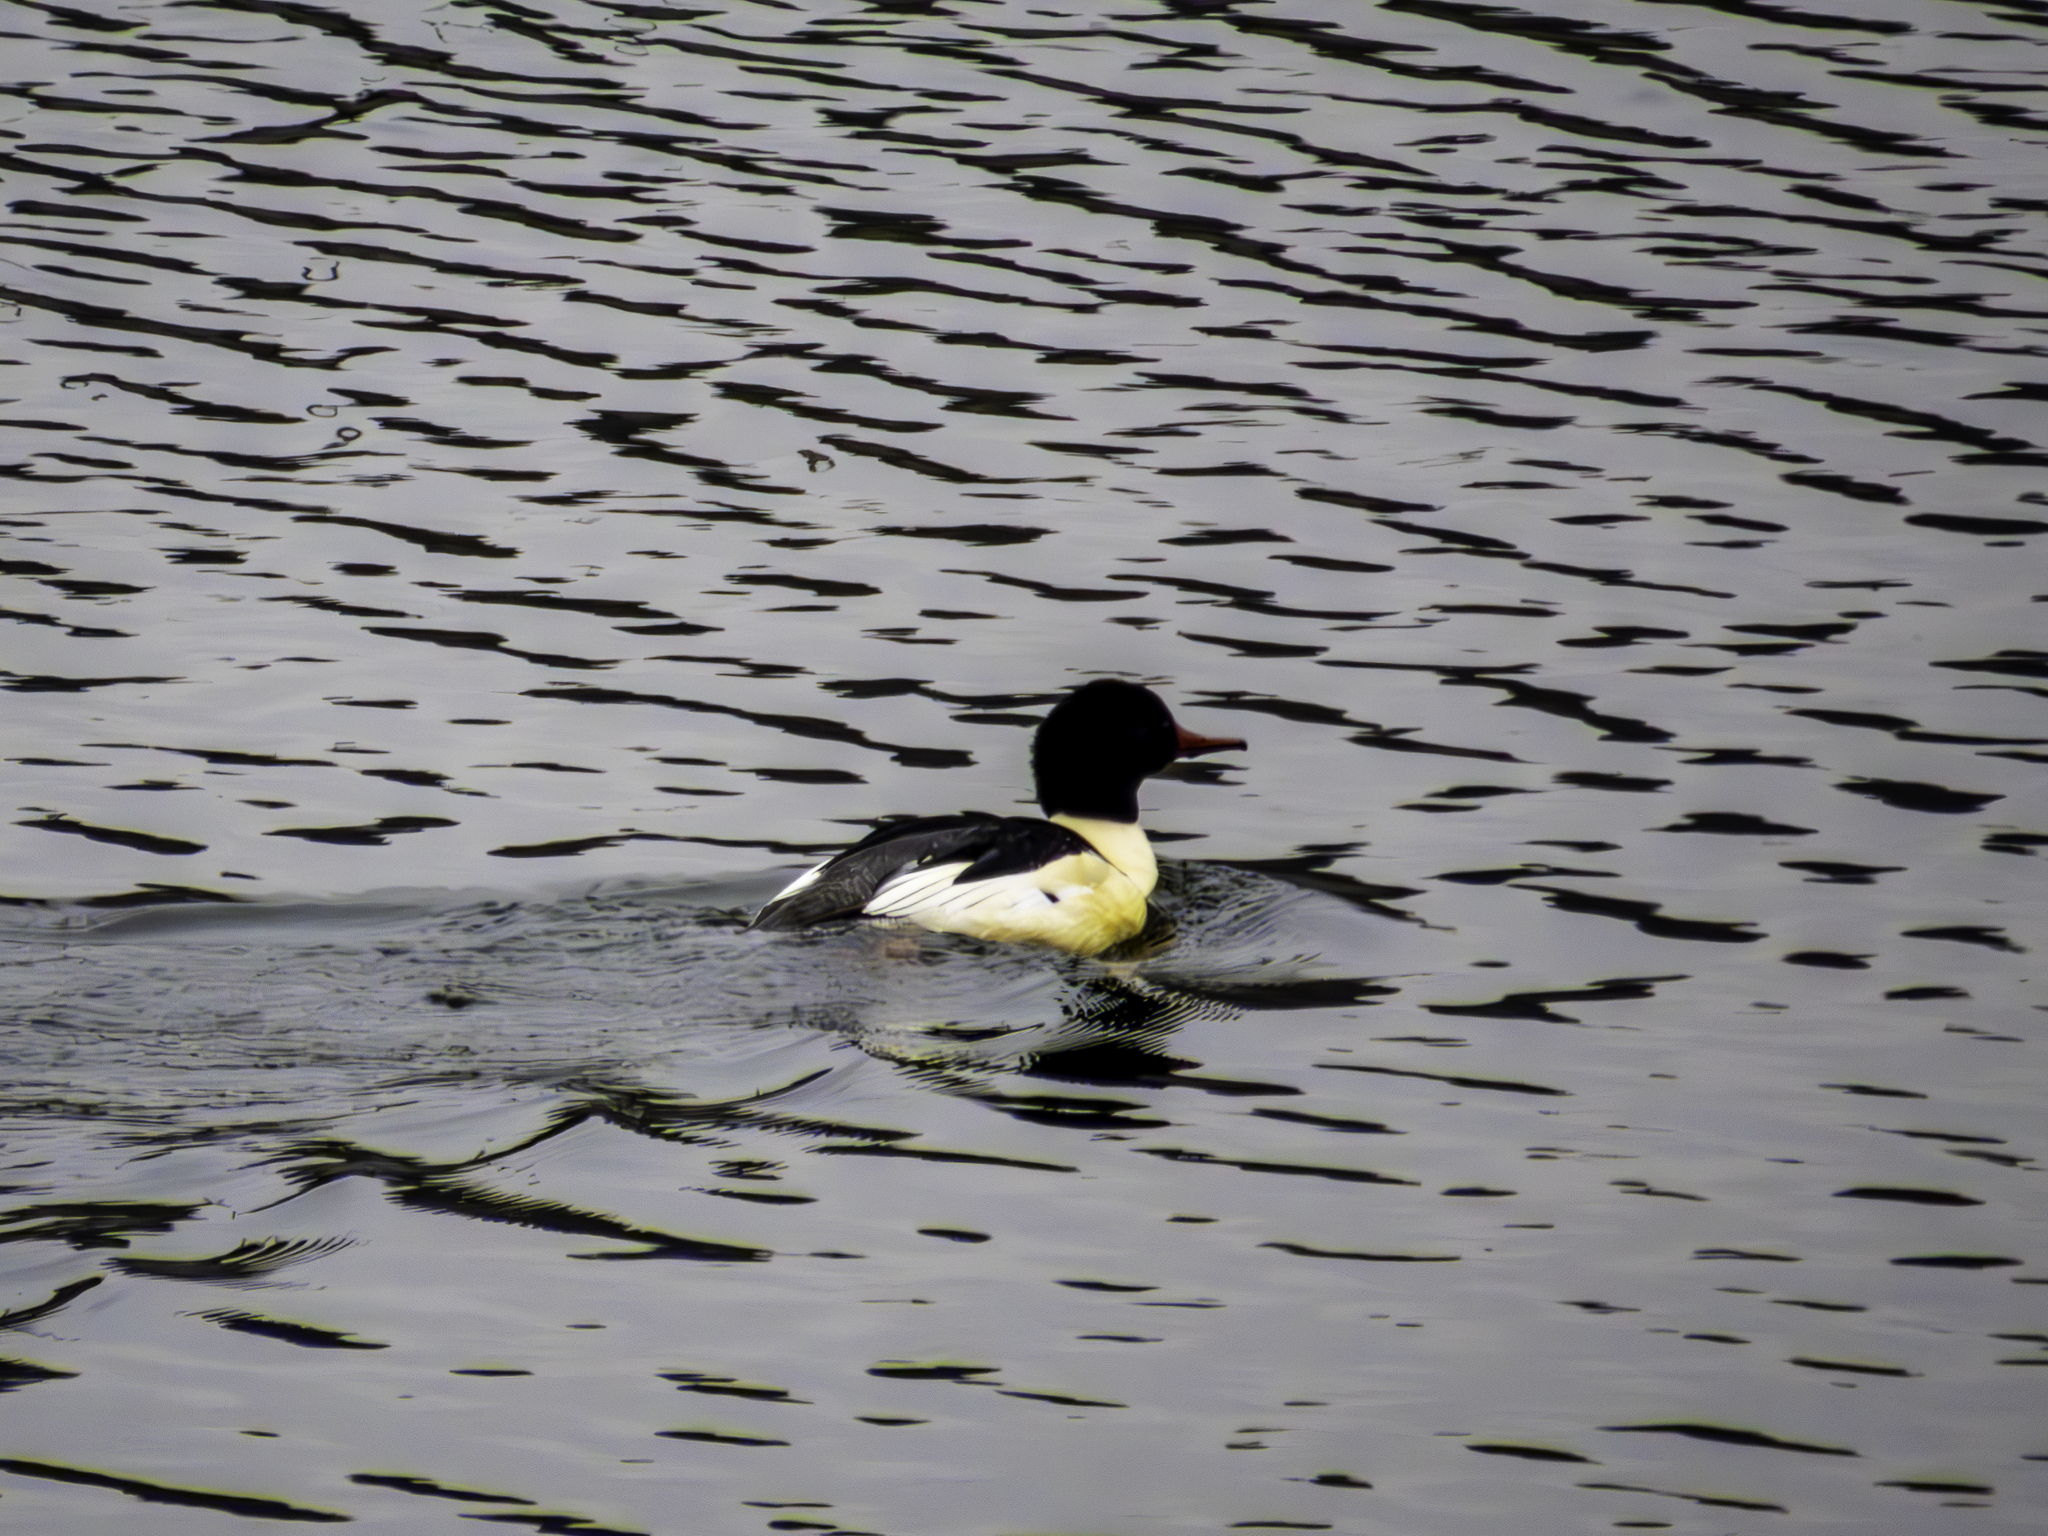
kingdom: Animalia
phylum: Chordata
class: Aves
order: Anseriformes
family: Anatidae
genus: Mergus
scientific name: Mergus merganser
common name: Common merganser
